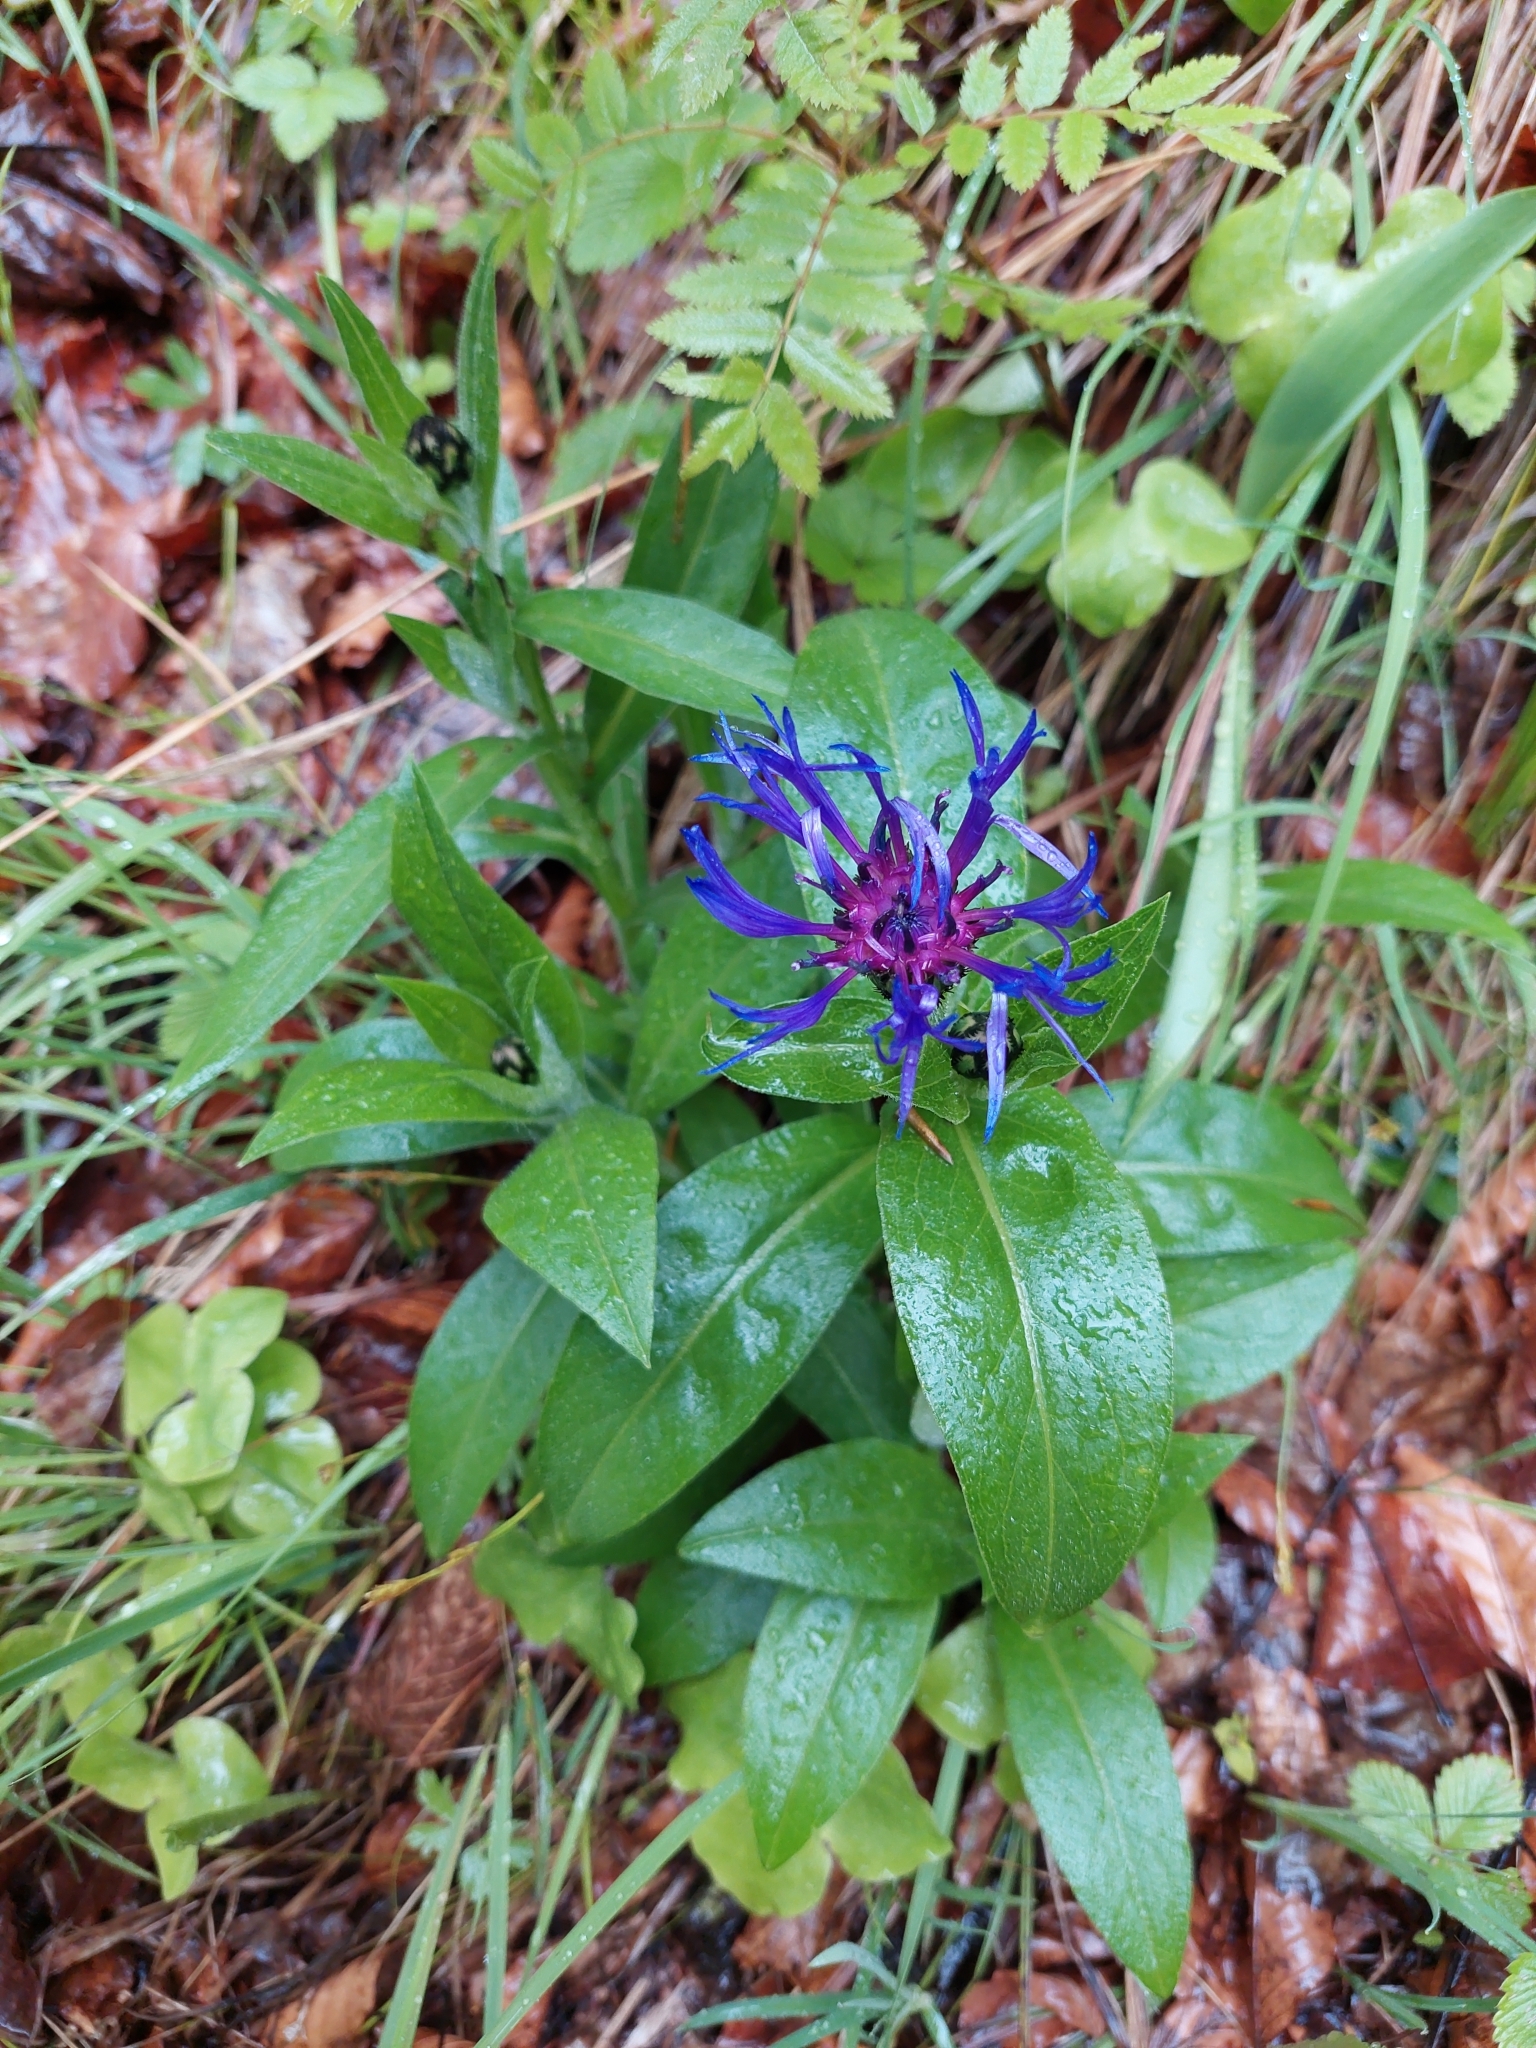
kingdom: Plantae
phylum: Tracheophyta
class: Magnoliopsida
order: Asterales
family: Asteraceae
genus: Centaurea
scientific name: Centaurea montana
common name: Perennial cornflower
